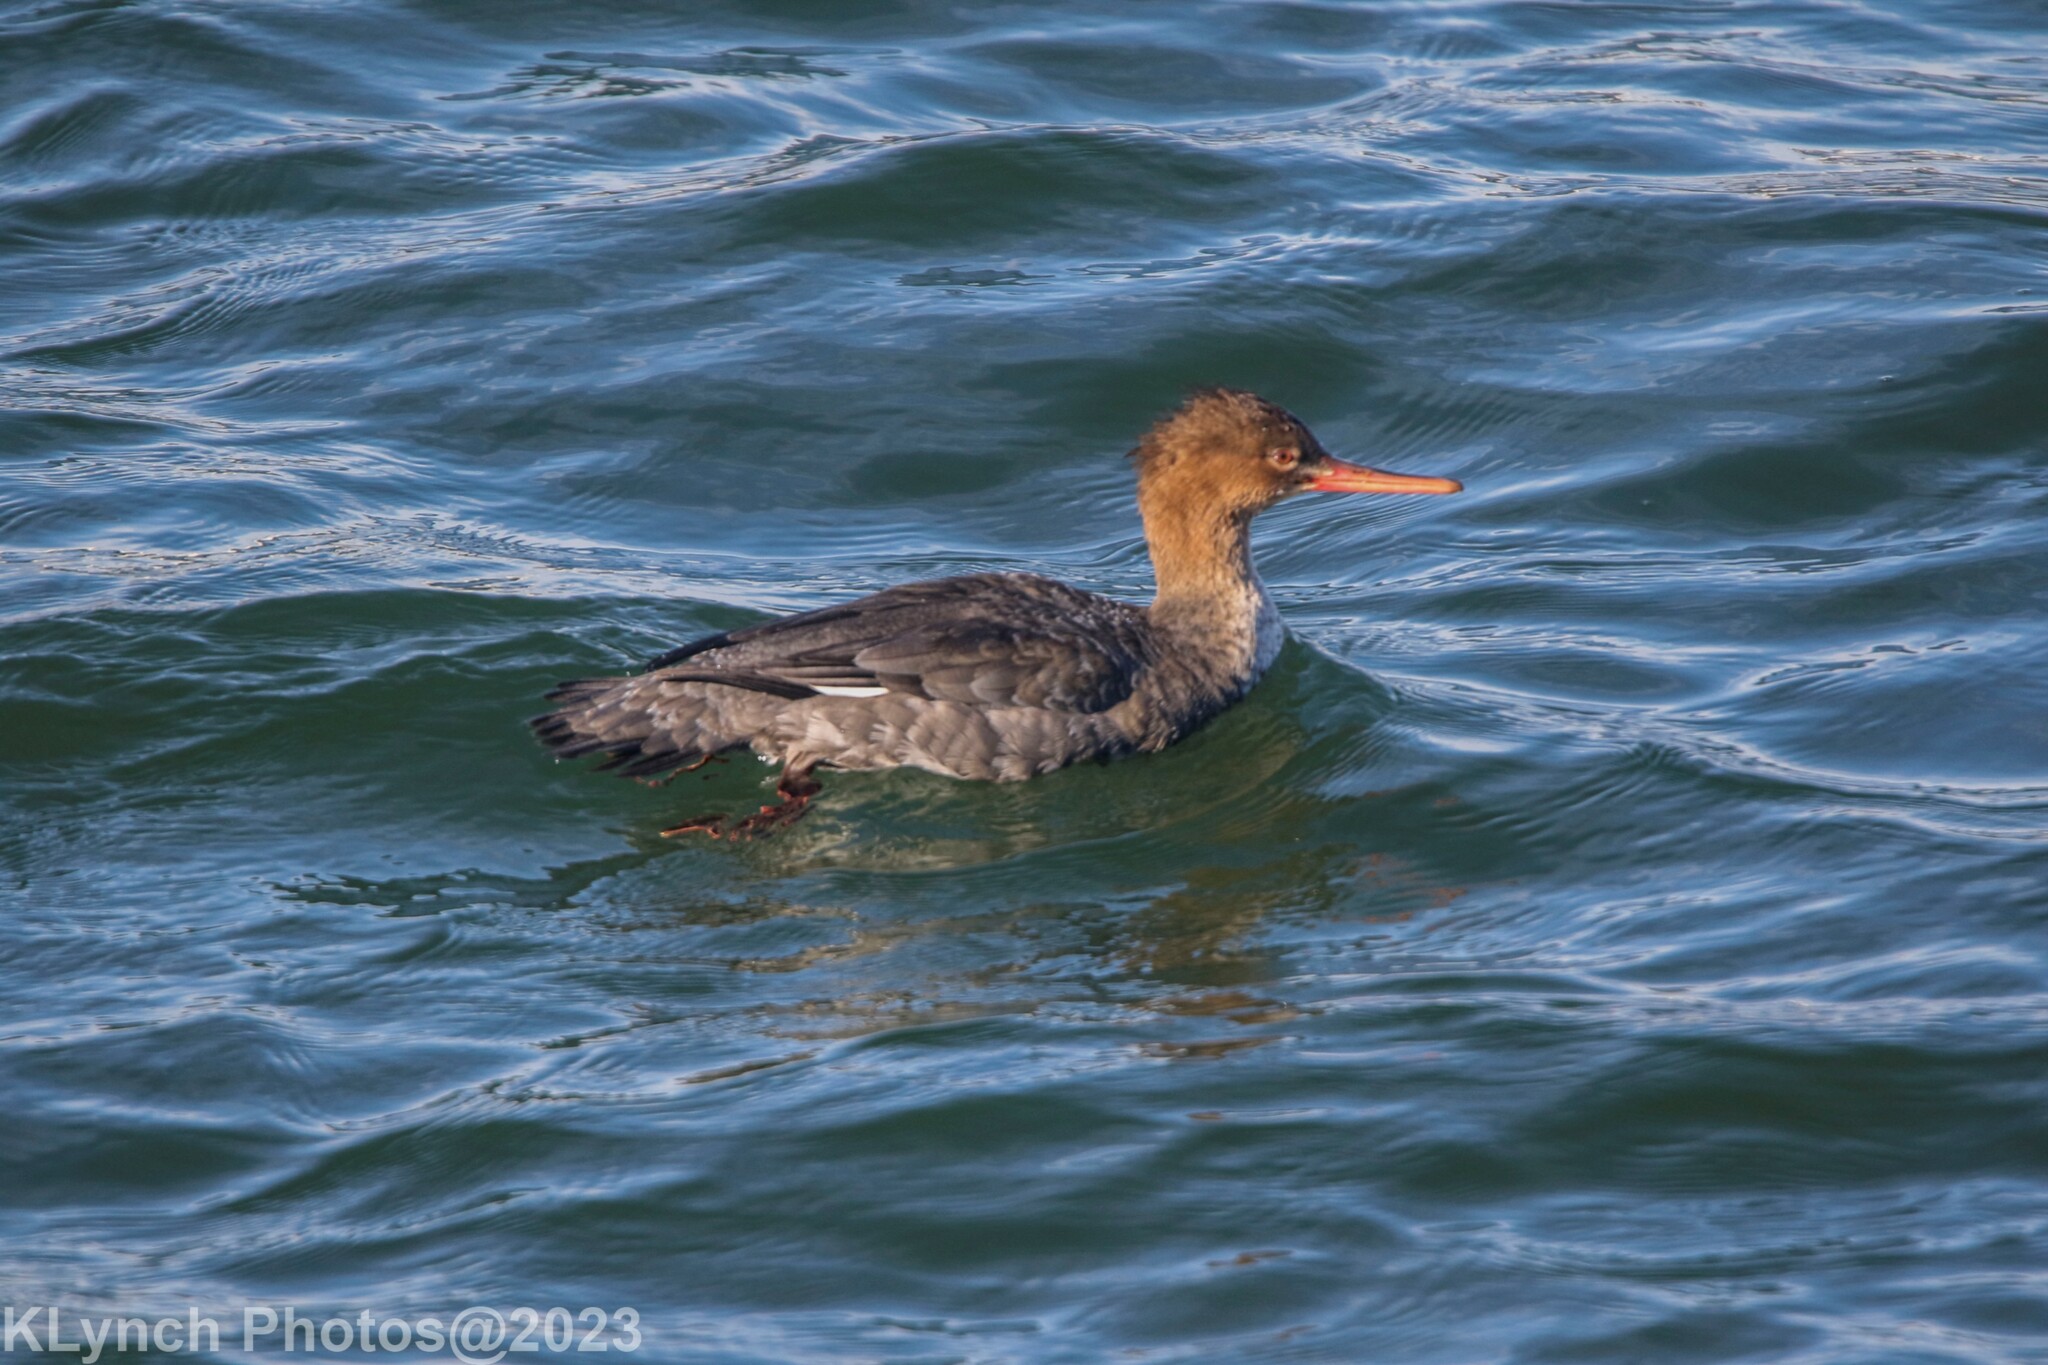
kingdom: Animalia
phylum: Chordata
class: Aves
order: Anseriformes
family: Anatidae
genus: Mergus
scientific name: Mergus serrator
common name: Red-breasted merganser
